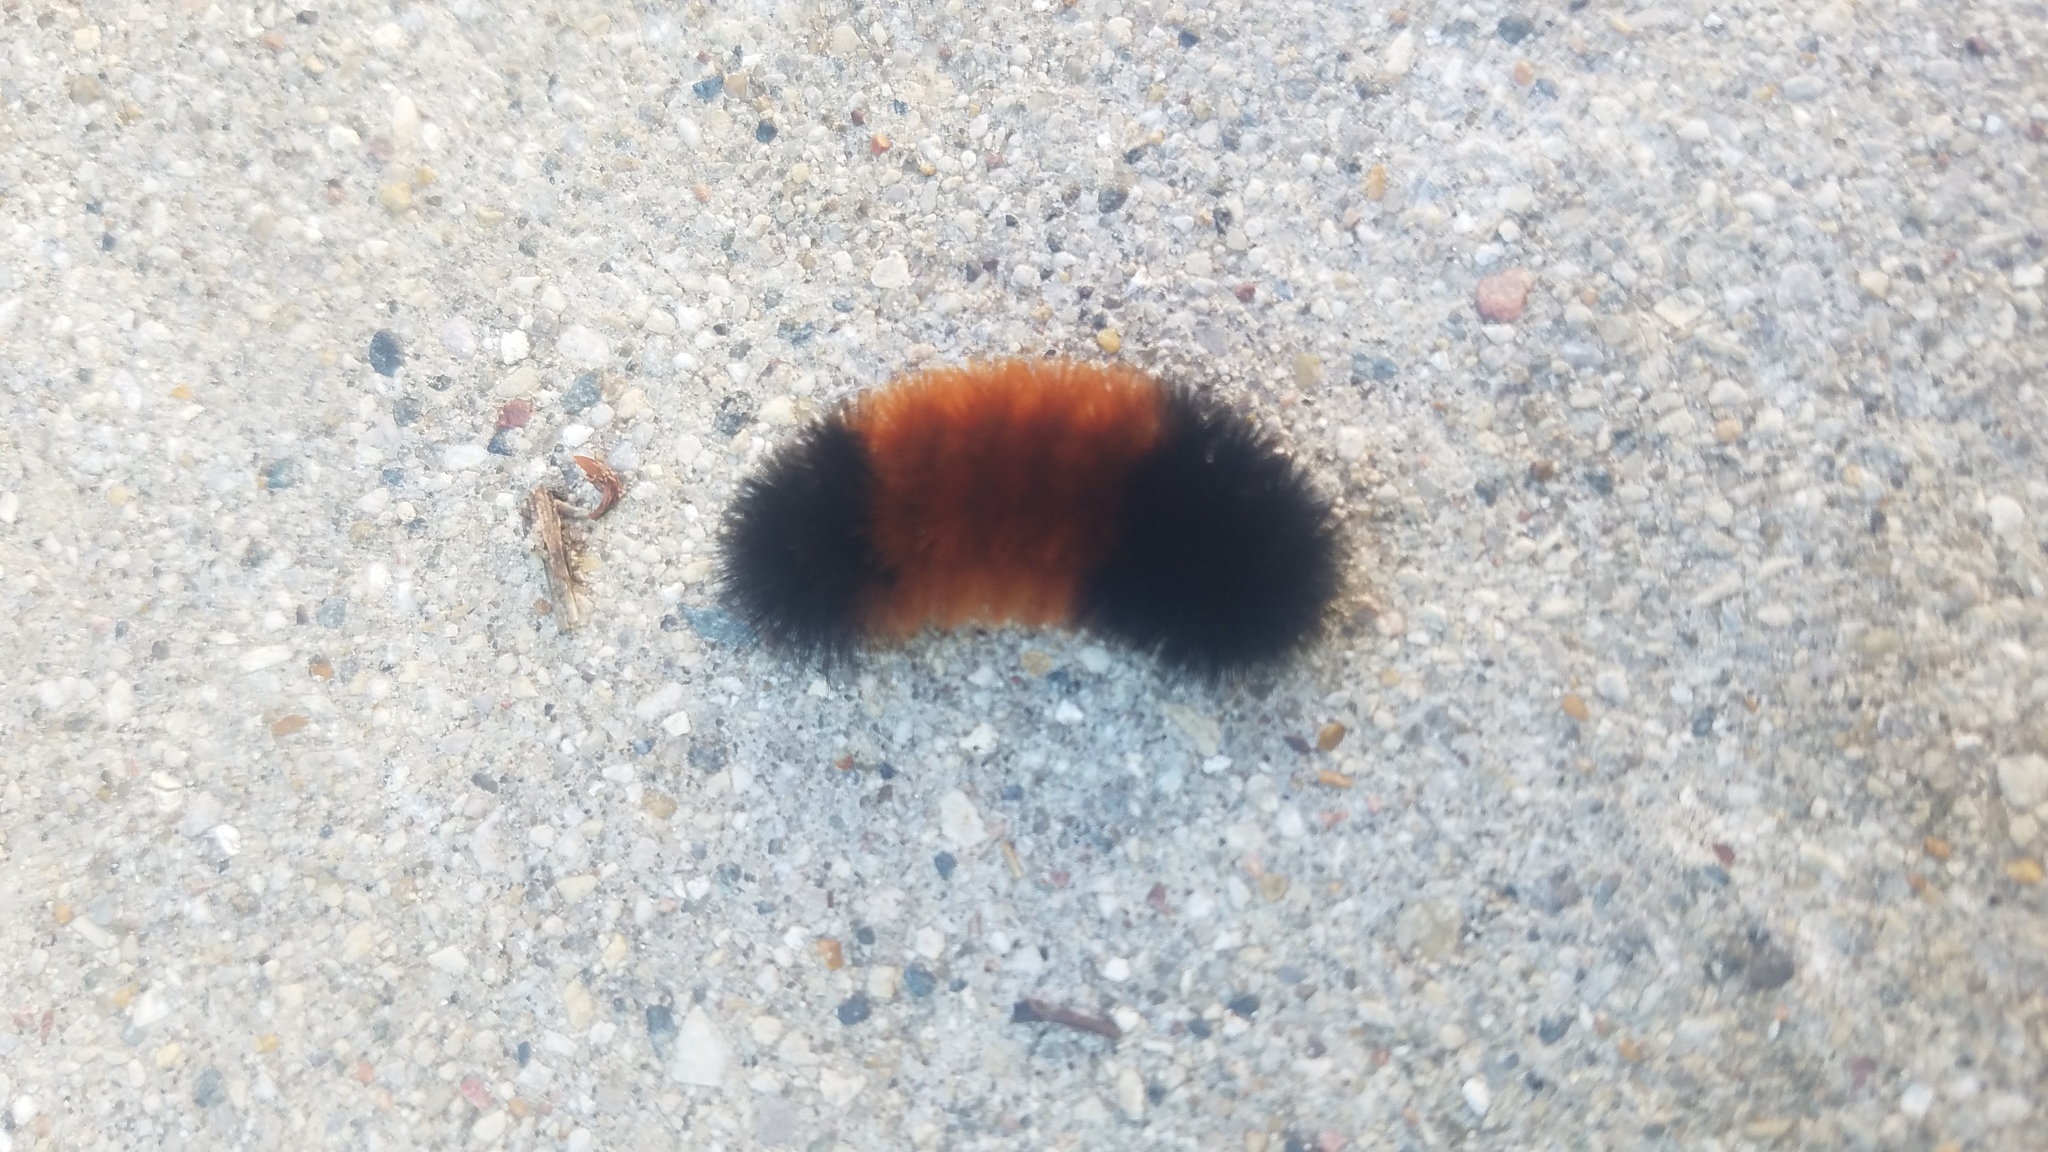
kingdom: Animalia
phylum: Arthropoda
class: Insecta
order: Lepidoptera
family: Erebidae
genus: Pyrrharctia
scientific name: Pyrrharctia isabella
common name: Isabella tiger moth
